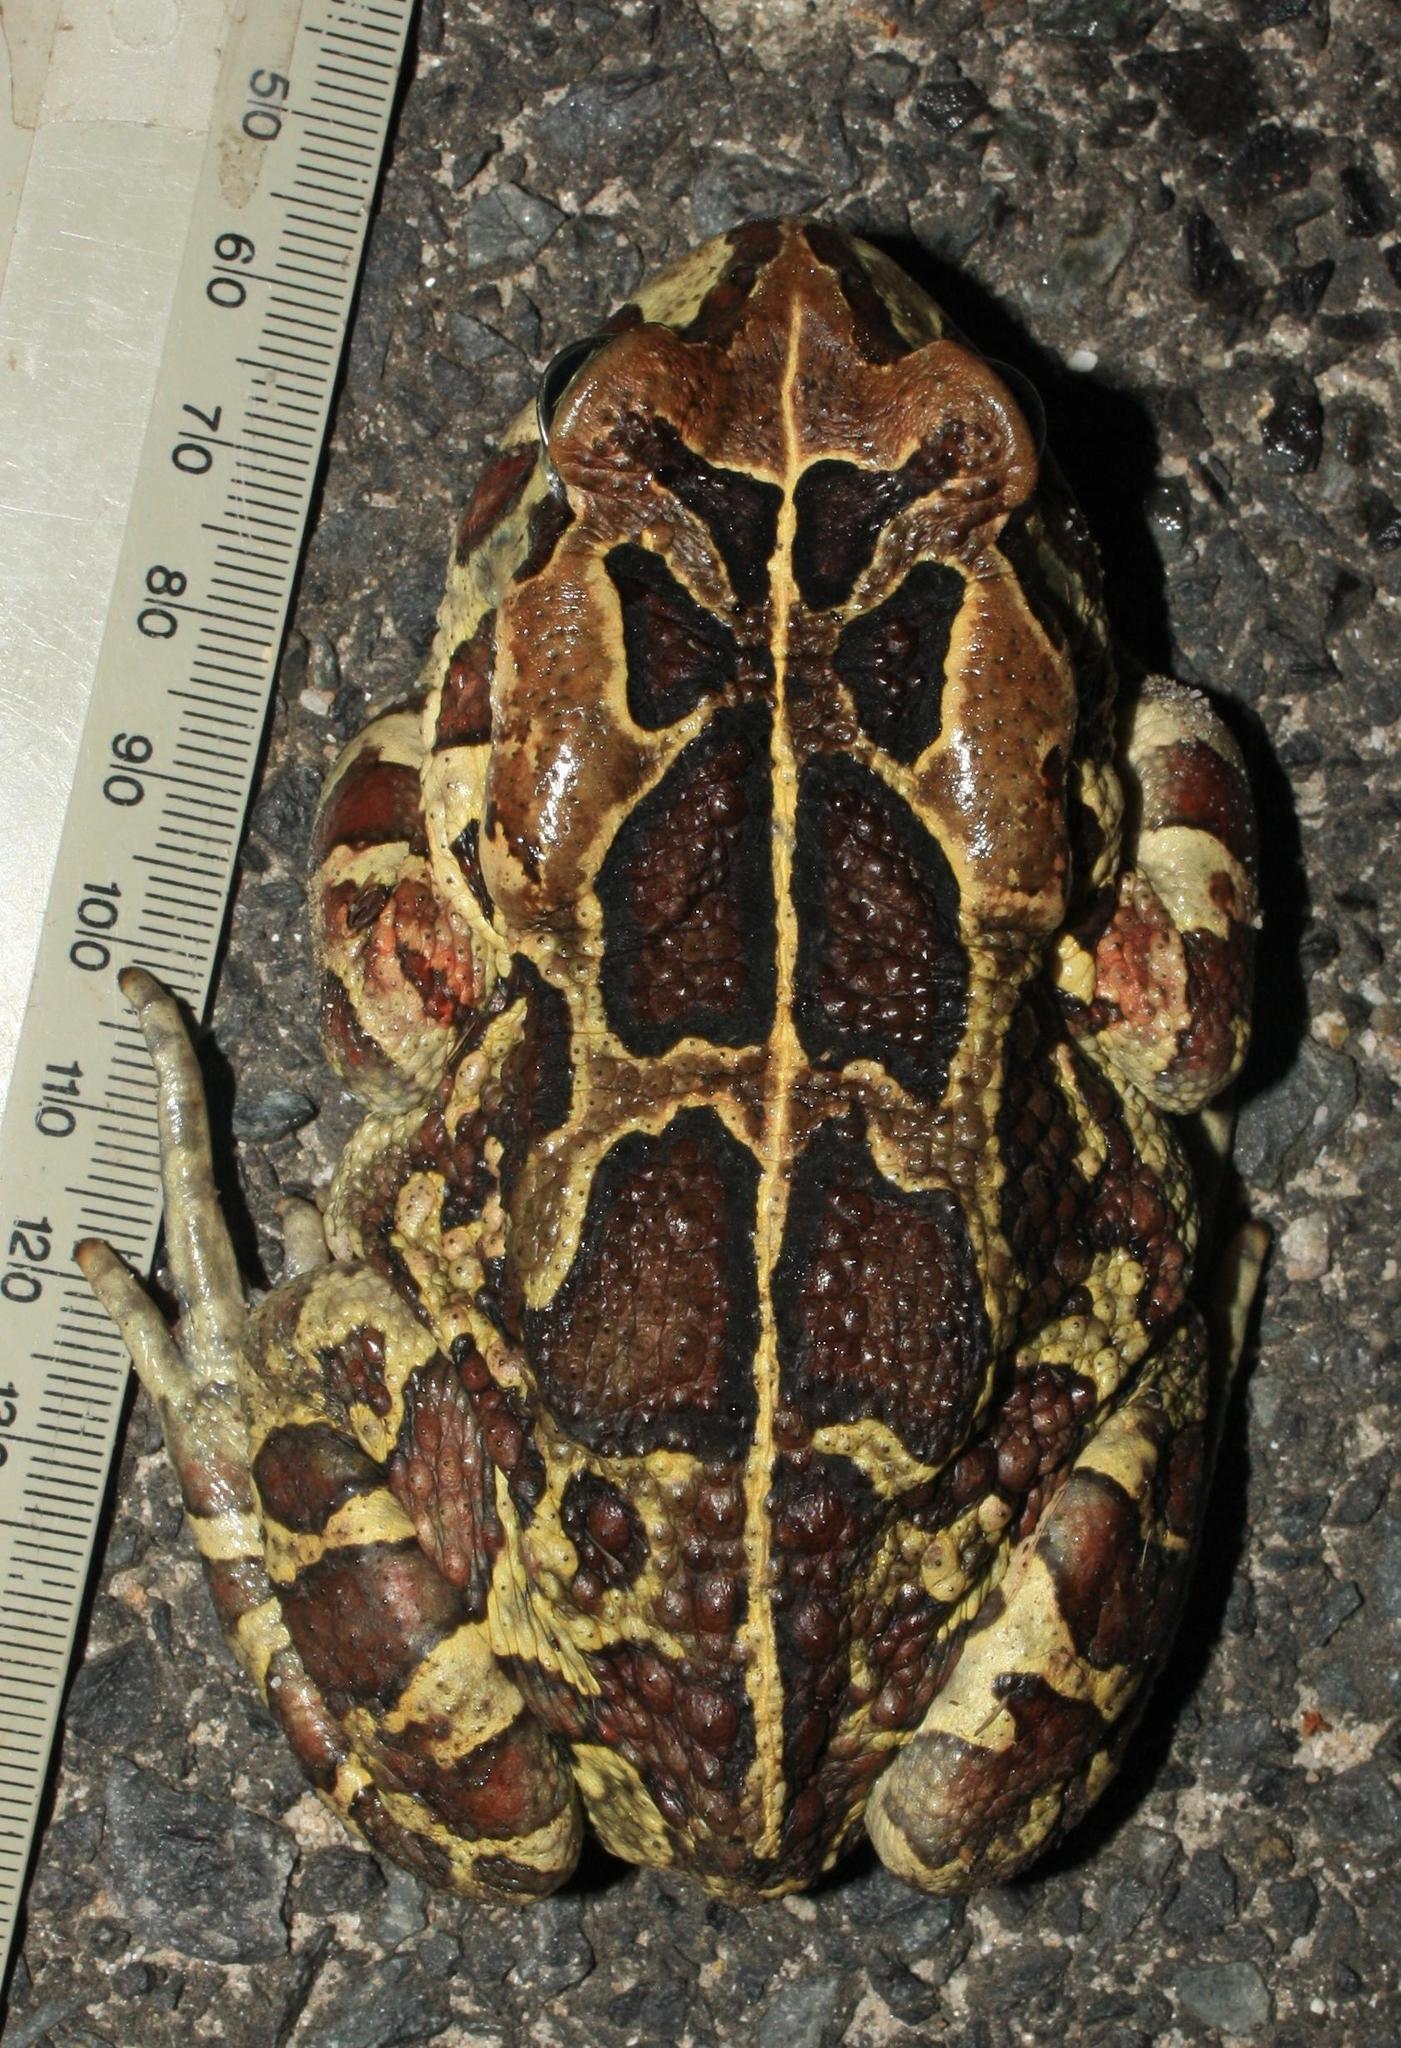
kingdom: Animalia
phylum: Chordata
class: Amphibia
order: Anura
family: Bufonidae
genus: Sclerophrys
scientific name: Sclerophrys pantherina
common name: Panther toad
